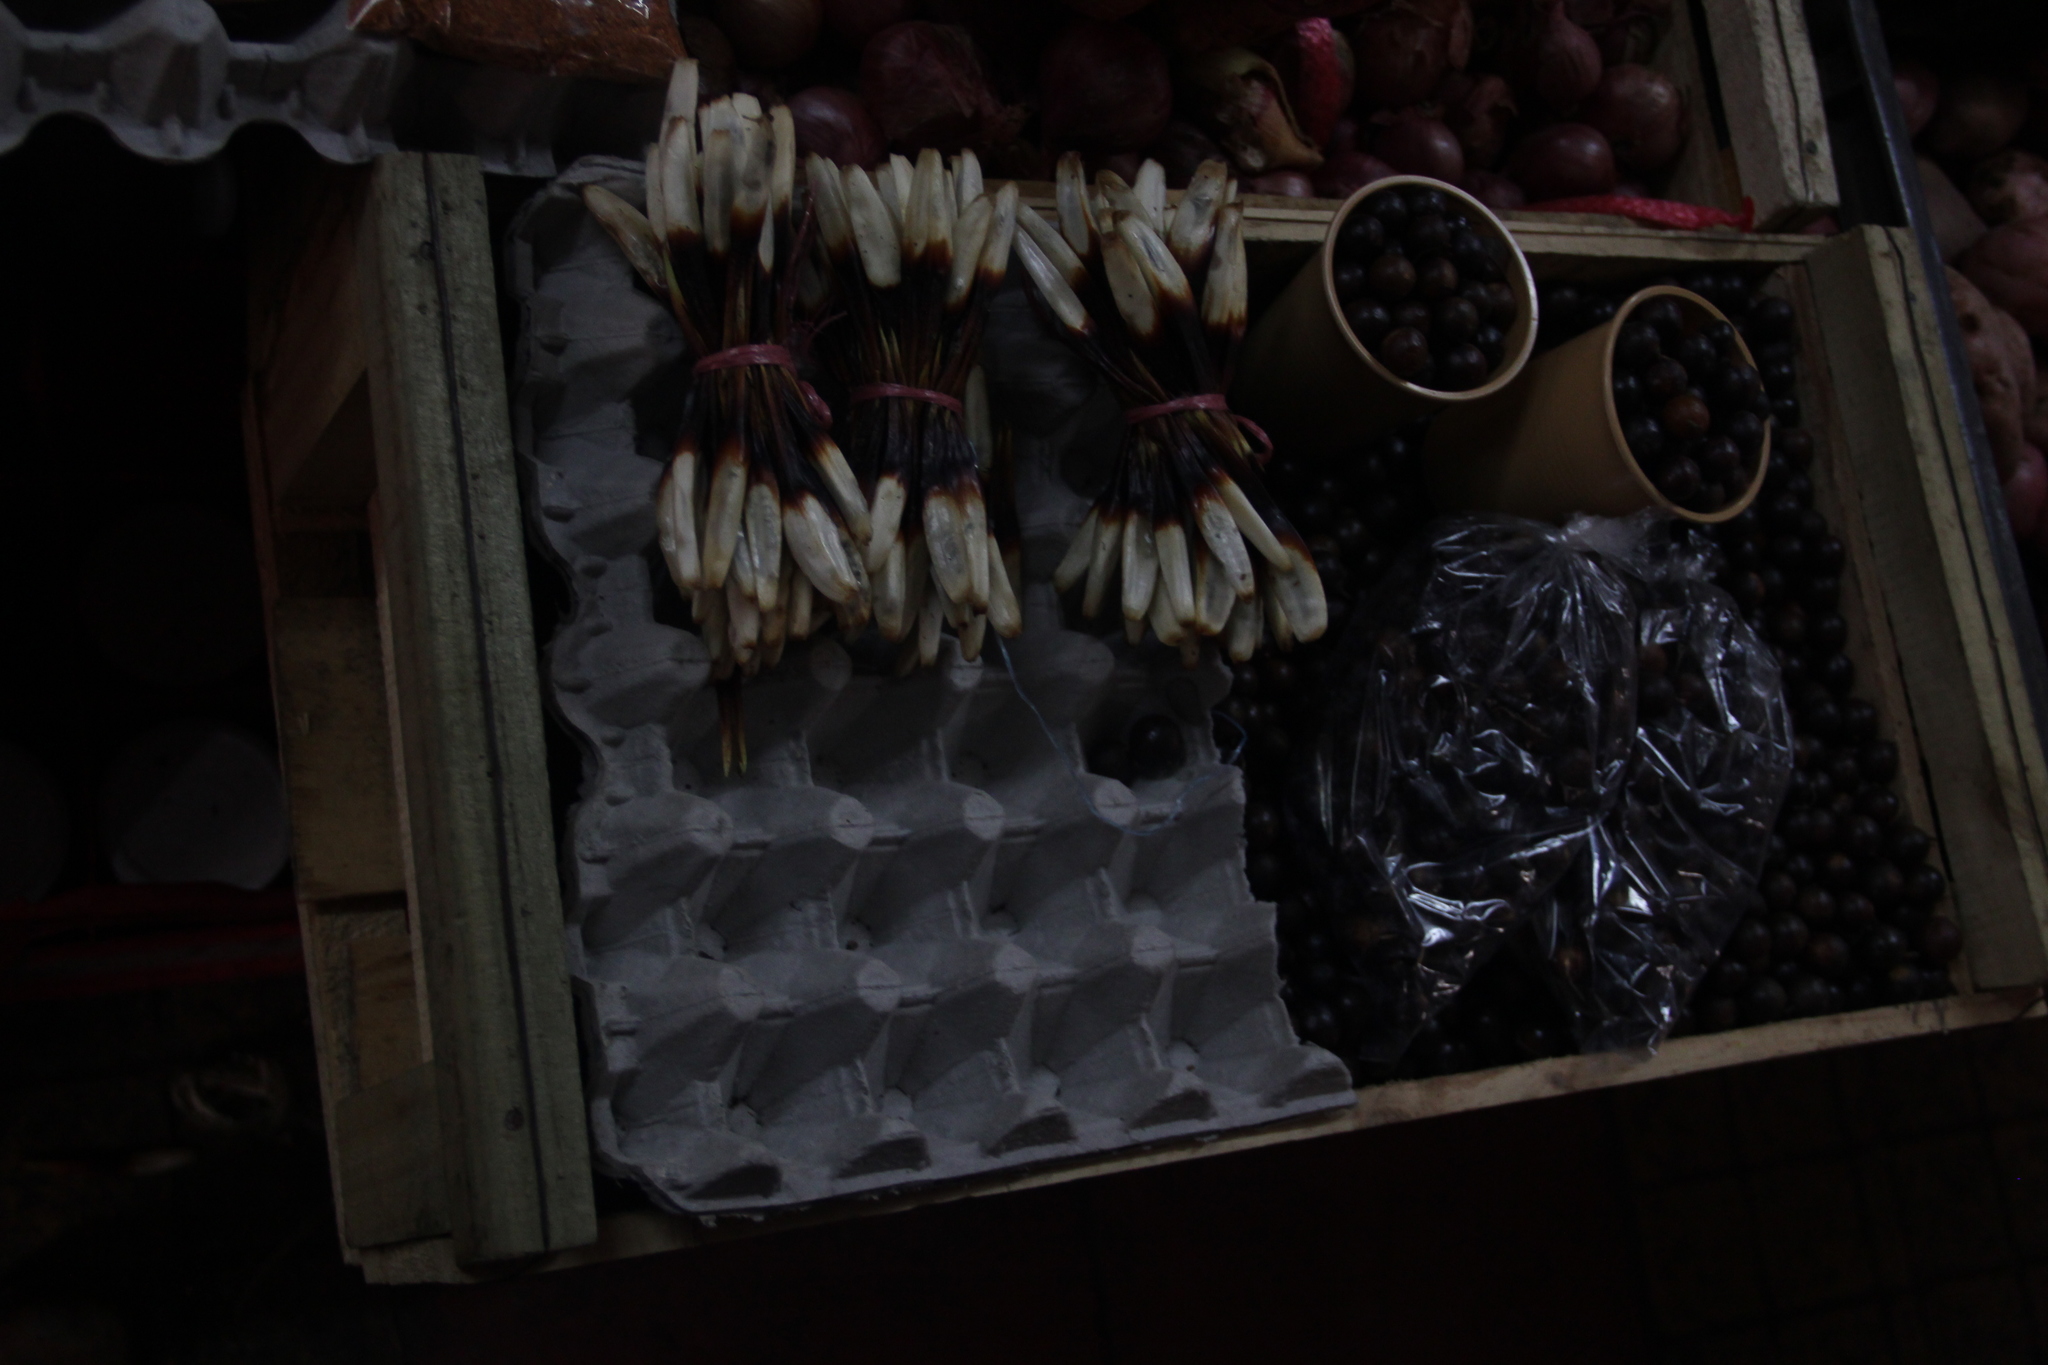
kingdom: Plantae
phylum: Tracheophyta
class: Liliopsida
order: Poales
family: Bromeliaceae
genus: Greigia
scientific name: Greigia sphacelata
